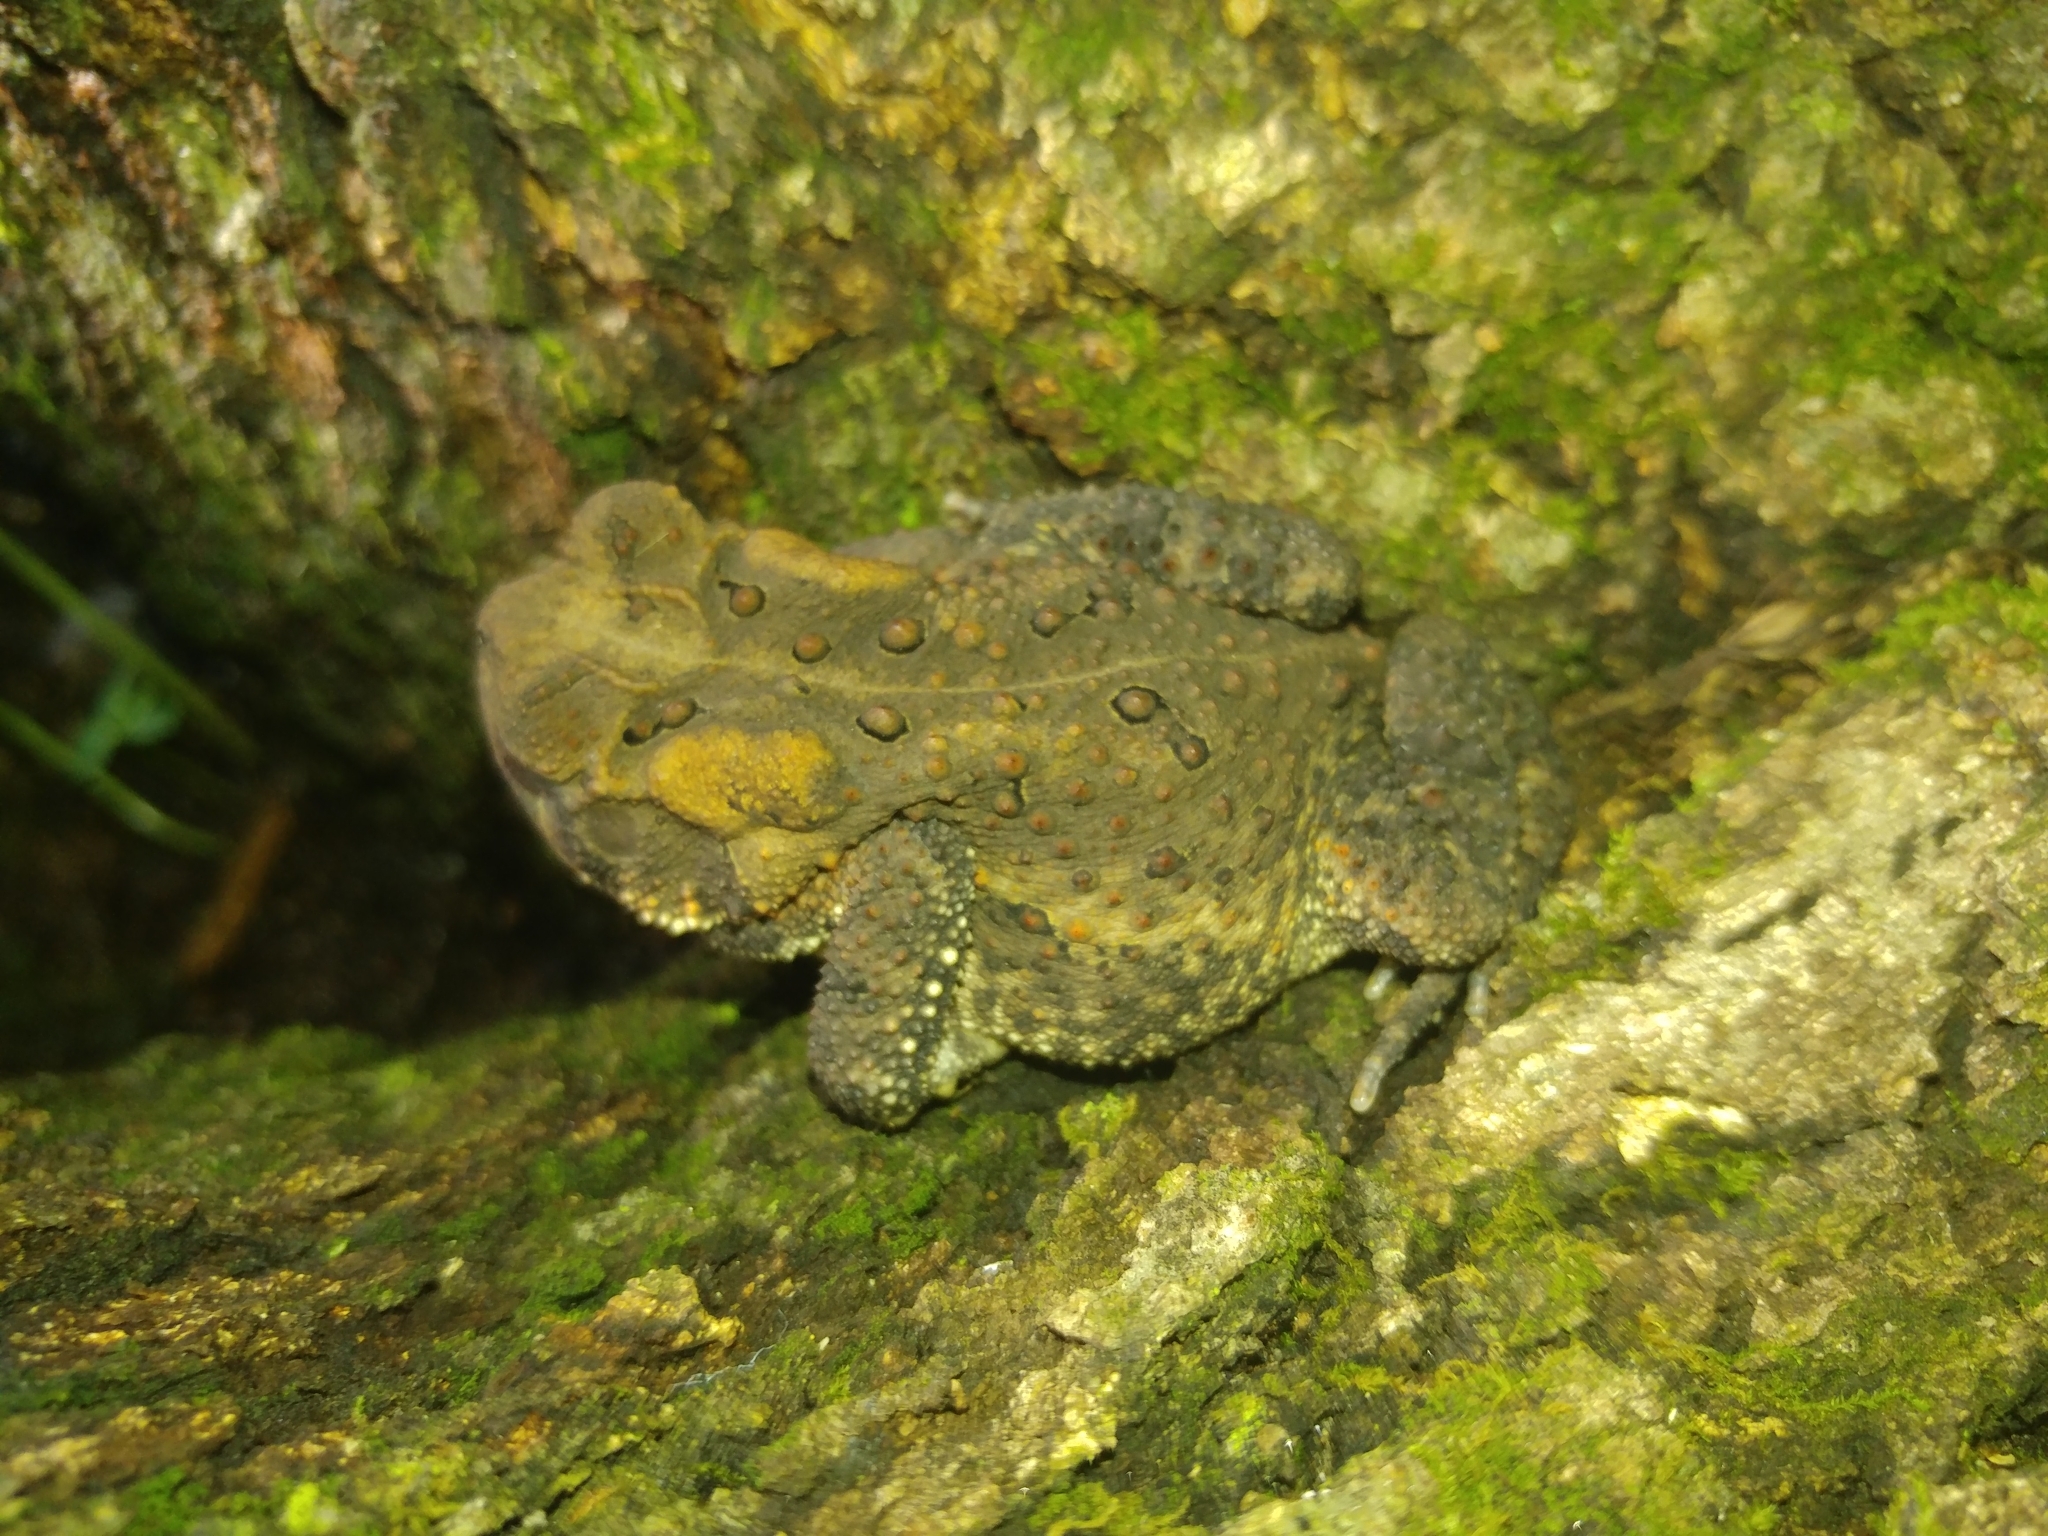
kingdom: Animalia
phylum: Chordata
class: Amphibia
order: Anura
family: Bufonidae
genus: Anaxyrus
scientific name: Anaxyrus americanus
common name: American toad
